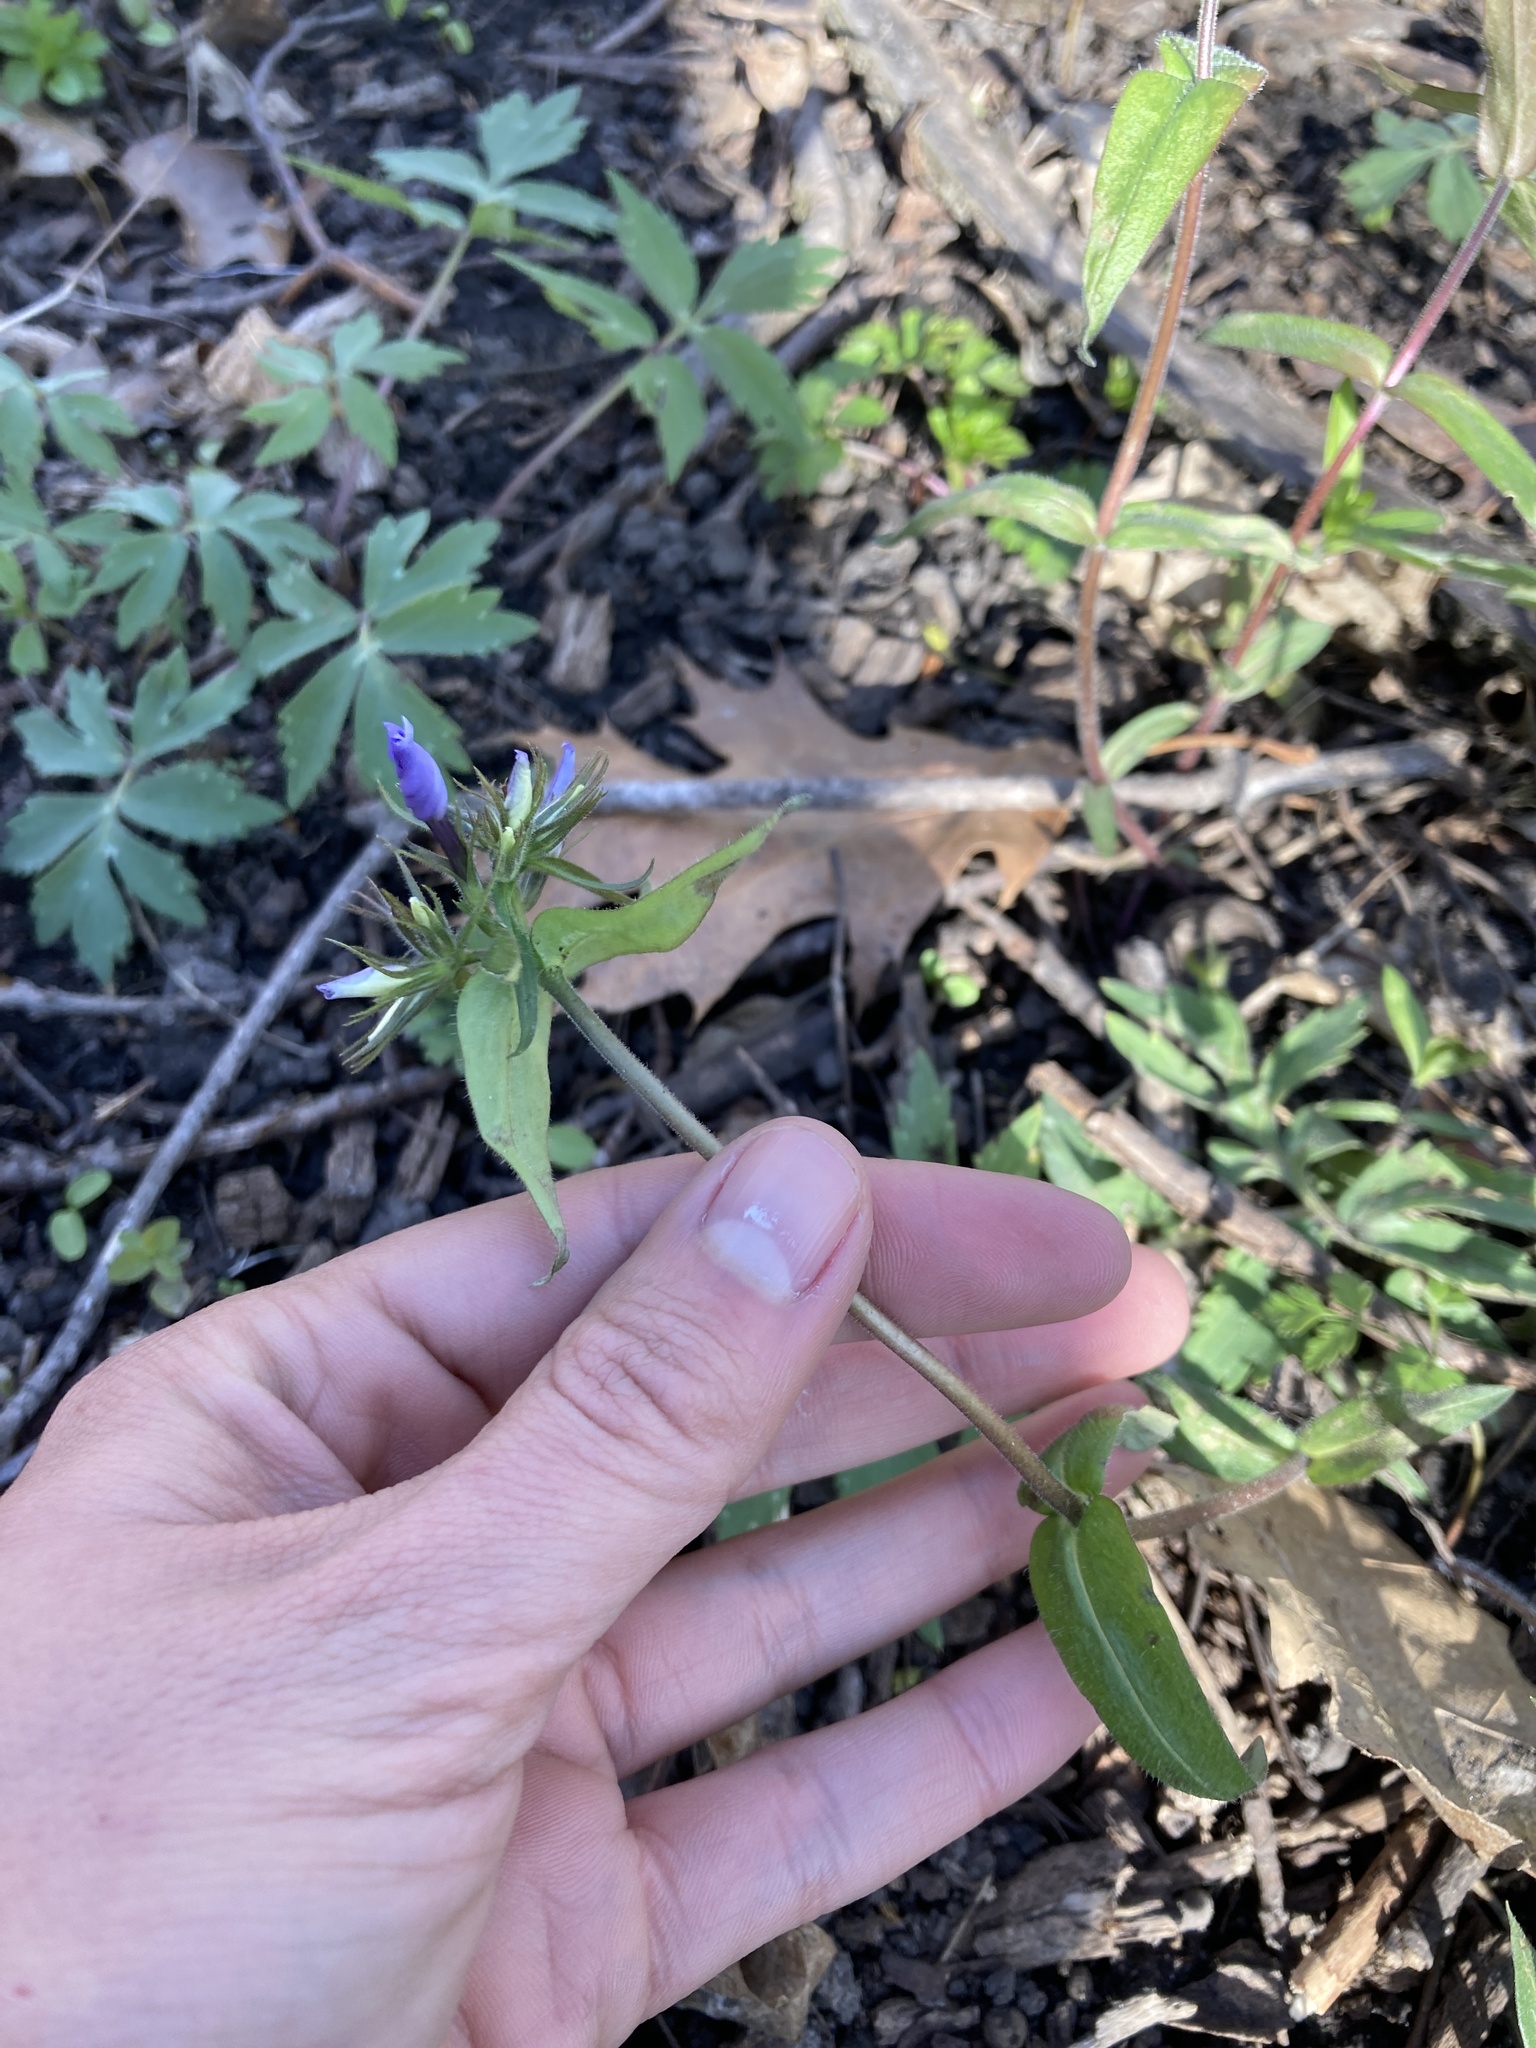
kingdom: Plantae
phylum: Tracheophyta
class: Magnoliopsida
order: Ericales
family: Polemoniaceae
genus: Phlox
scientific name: Phlox divaricata
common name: Blue phlox
